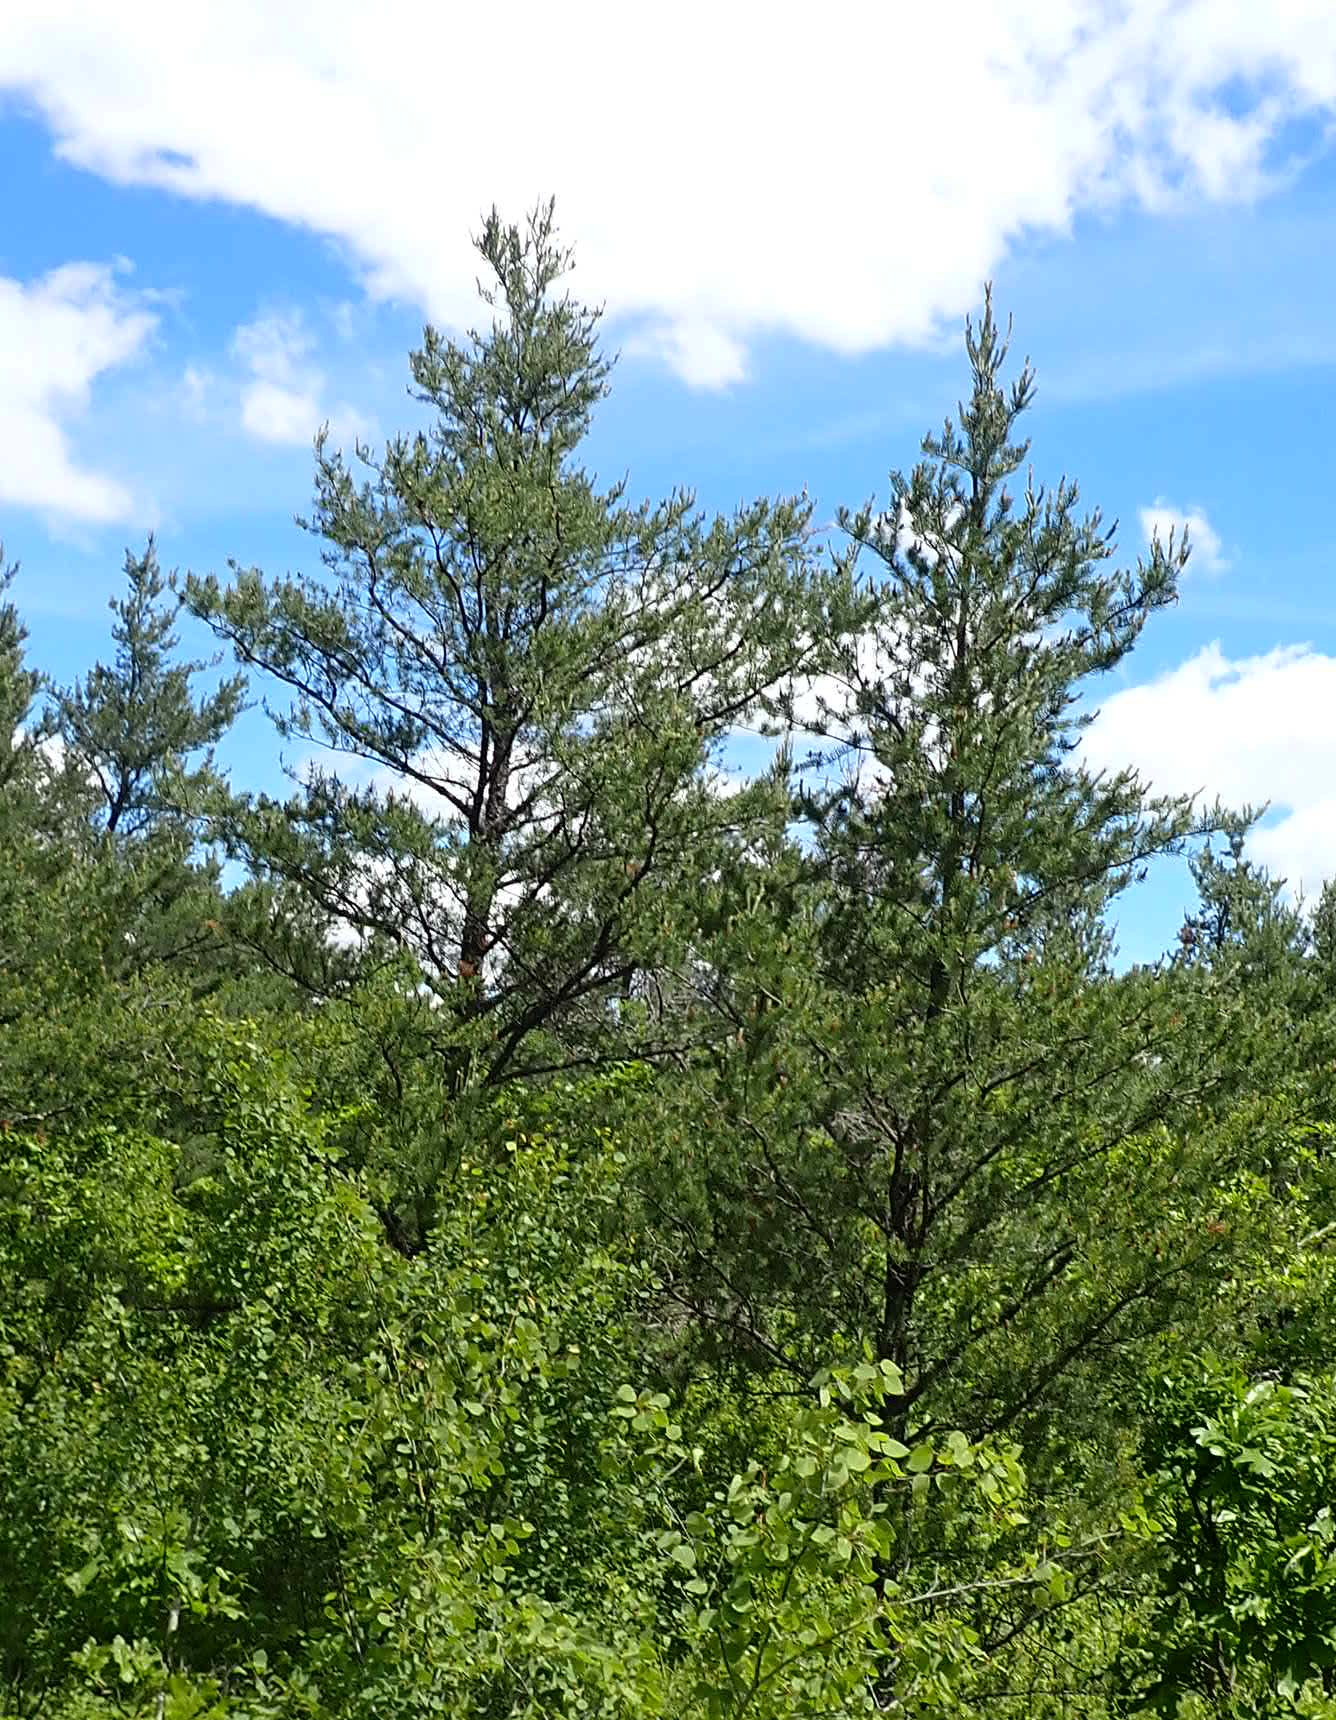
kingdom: Plantae
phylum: Tracheophyta
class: Pinopsida
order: Pinales
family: Pinaceae
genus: Pinus
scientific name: Pinus banksiana
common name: Jack pine
